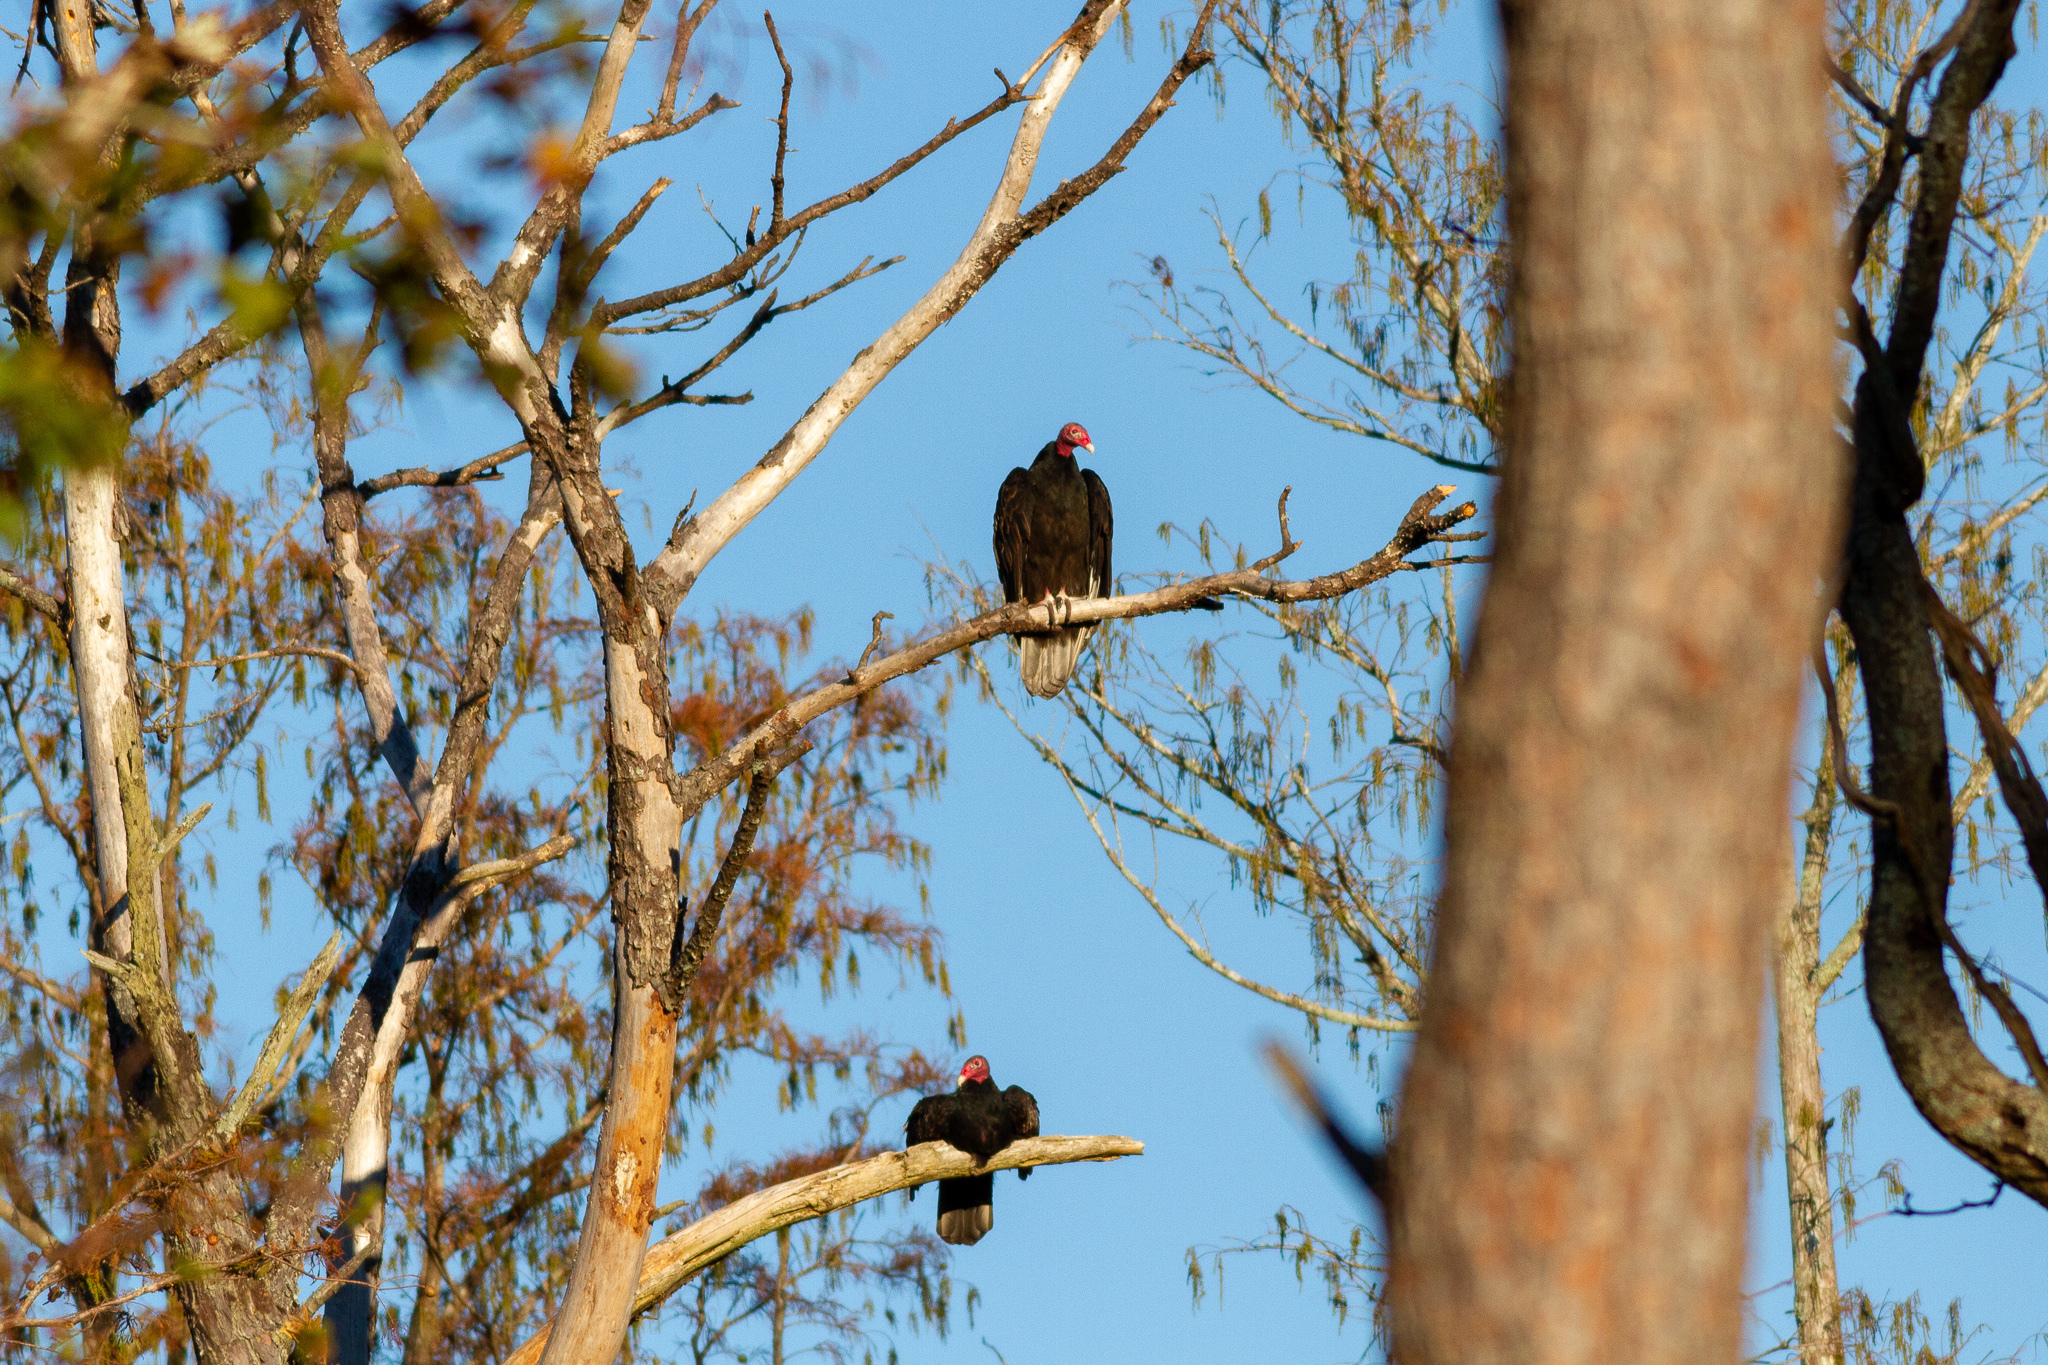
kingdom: Animalia
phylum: Chordata
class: Aves
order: Accipitriformes
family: Cathartidae
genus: Cathartes
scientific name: Cathartes aura
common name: Turkey vulture
